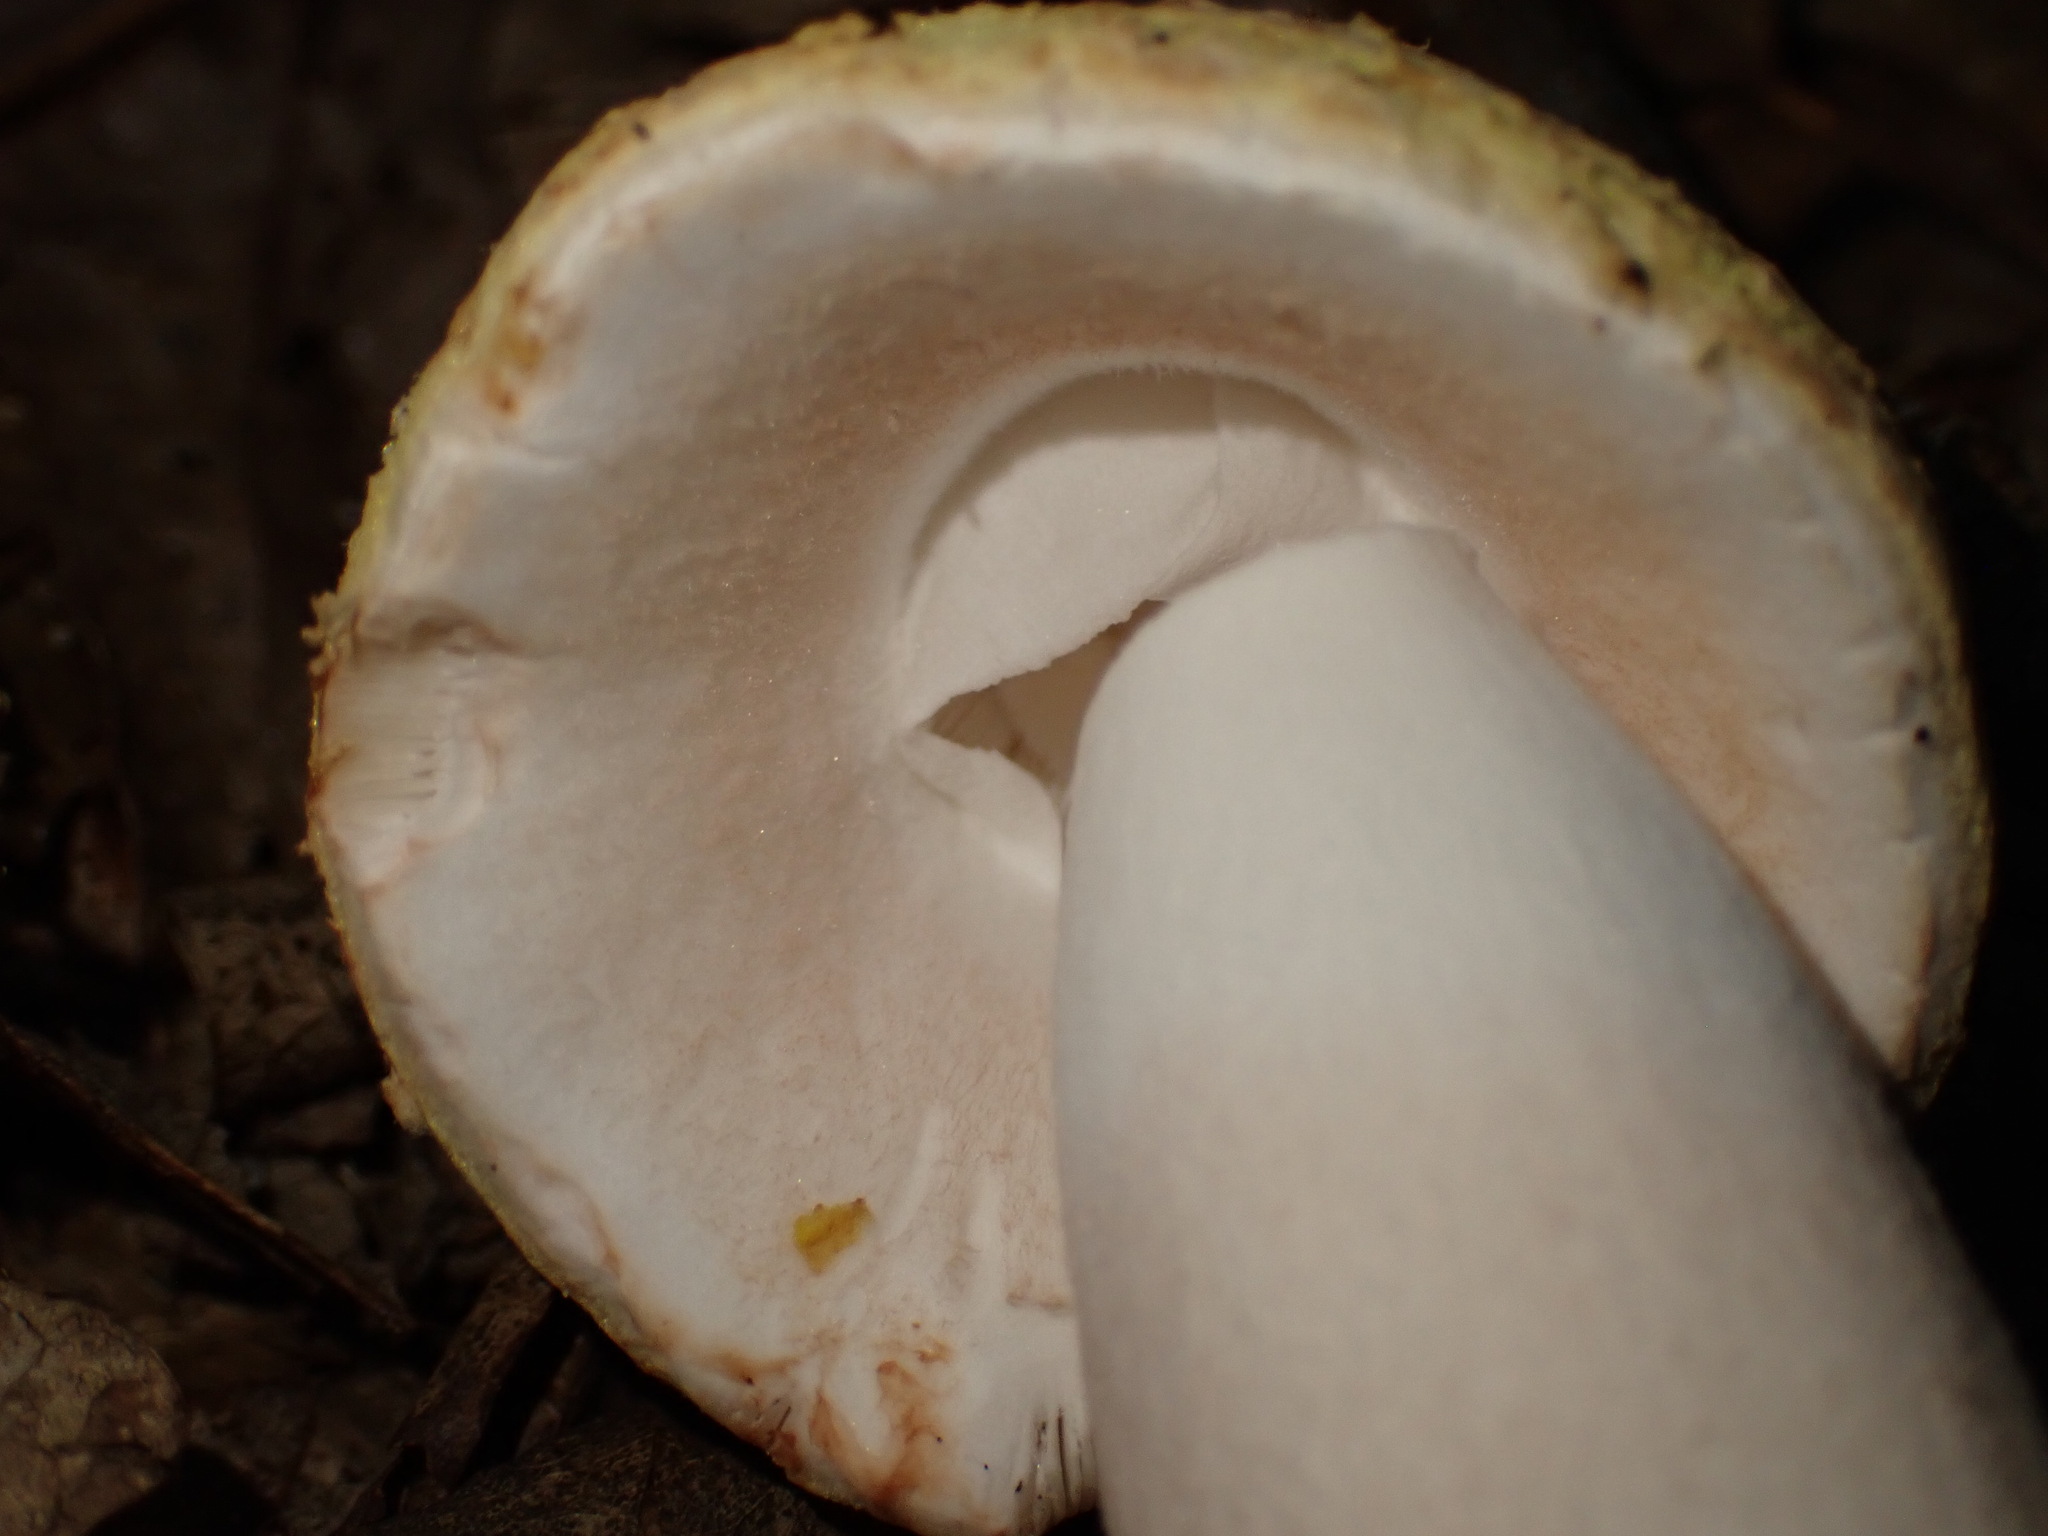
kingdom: Fungi
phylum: Basidiomycota
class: Agaricomycetes
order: Agaricales
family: Amanitaceae
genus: Amanita
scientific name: Amanita flavorubens
